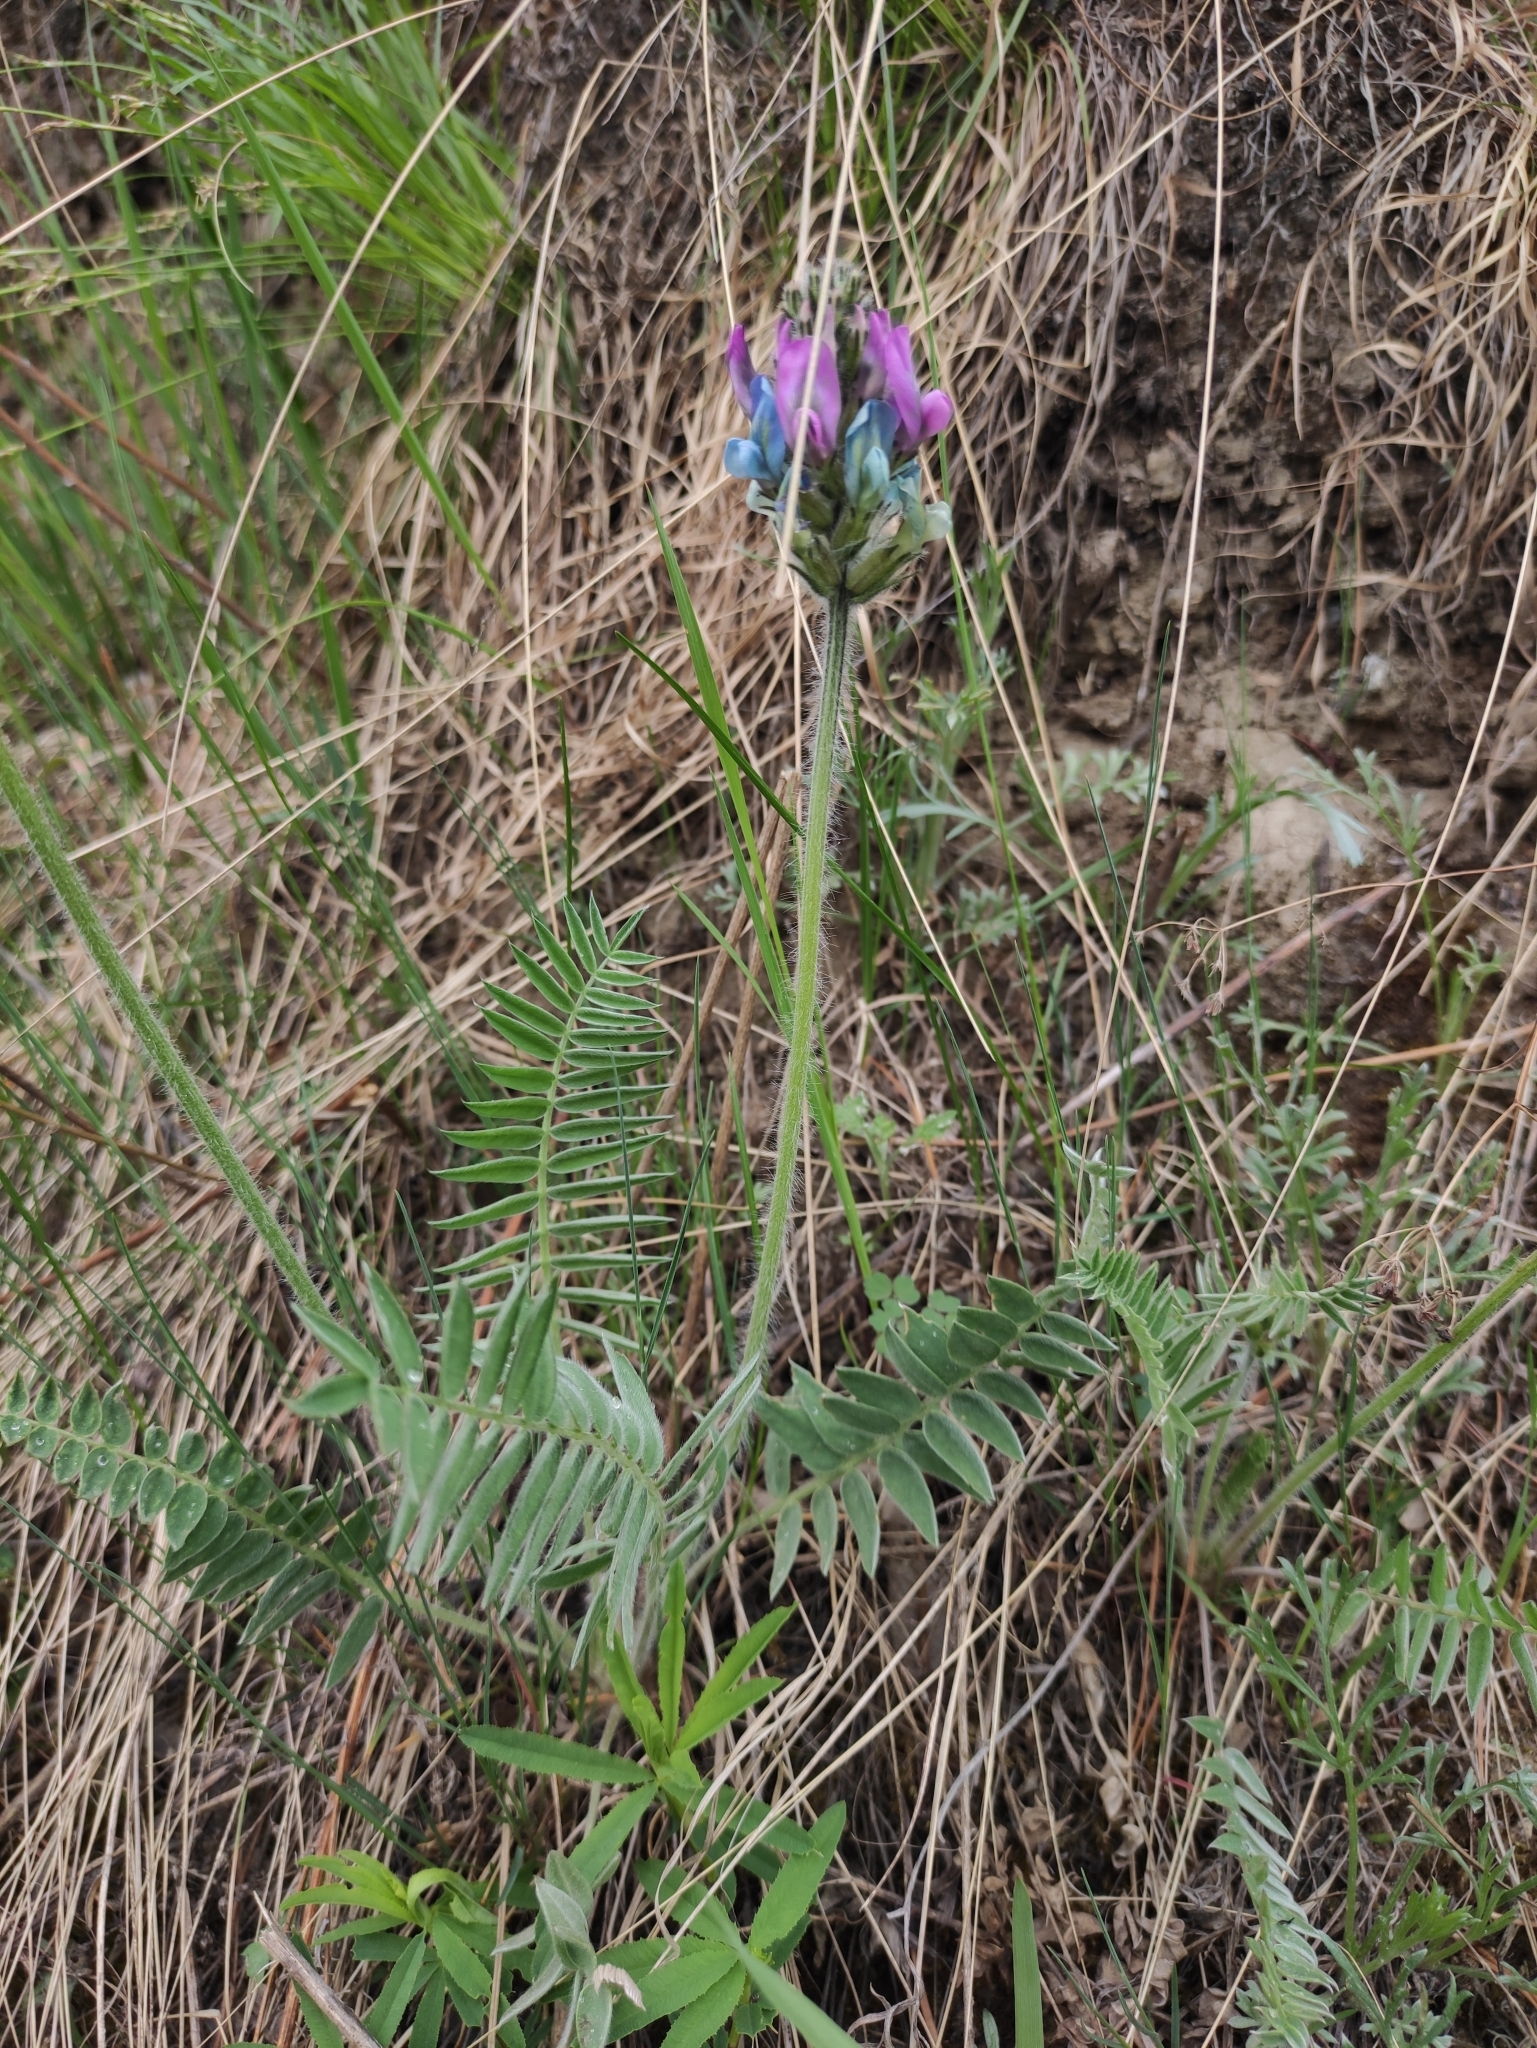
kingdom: Plantae
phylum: Tracheophyta
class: Magnoliopsida
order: Fabales
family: Fabaceae
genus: Oxytropis
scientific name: Oxytropis strobilacea
